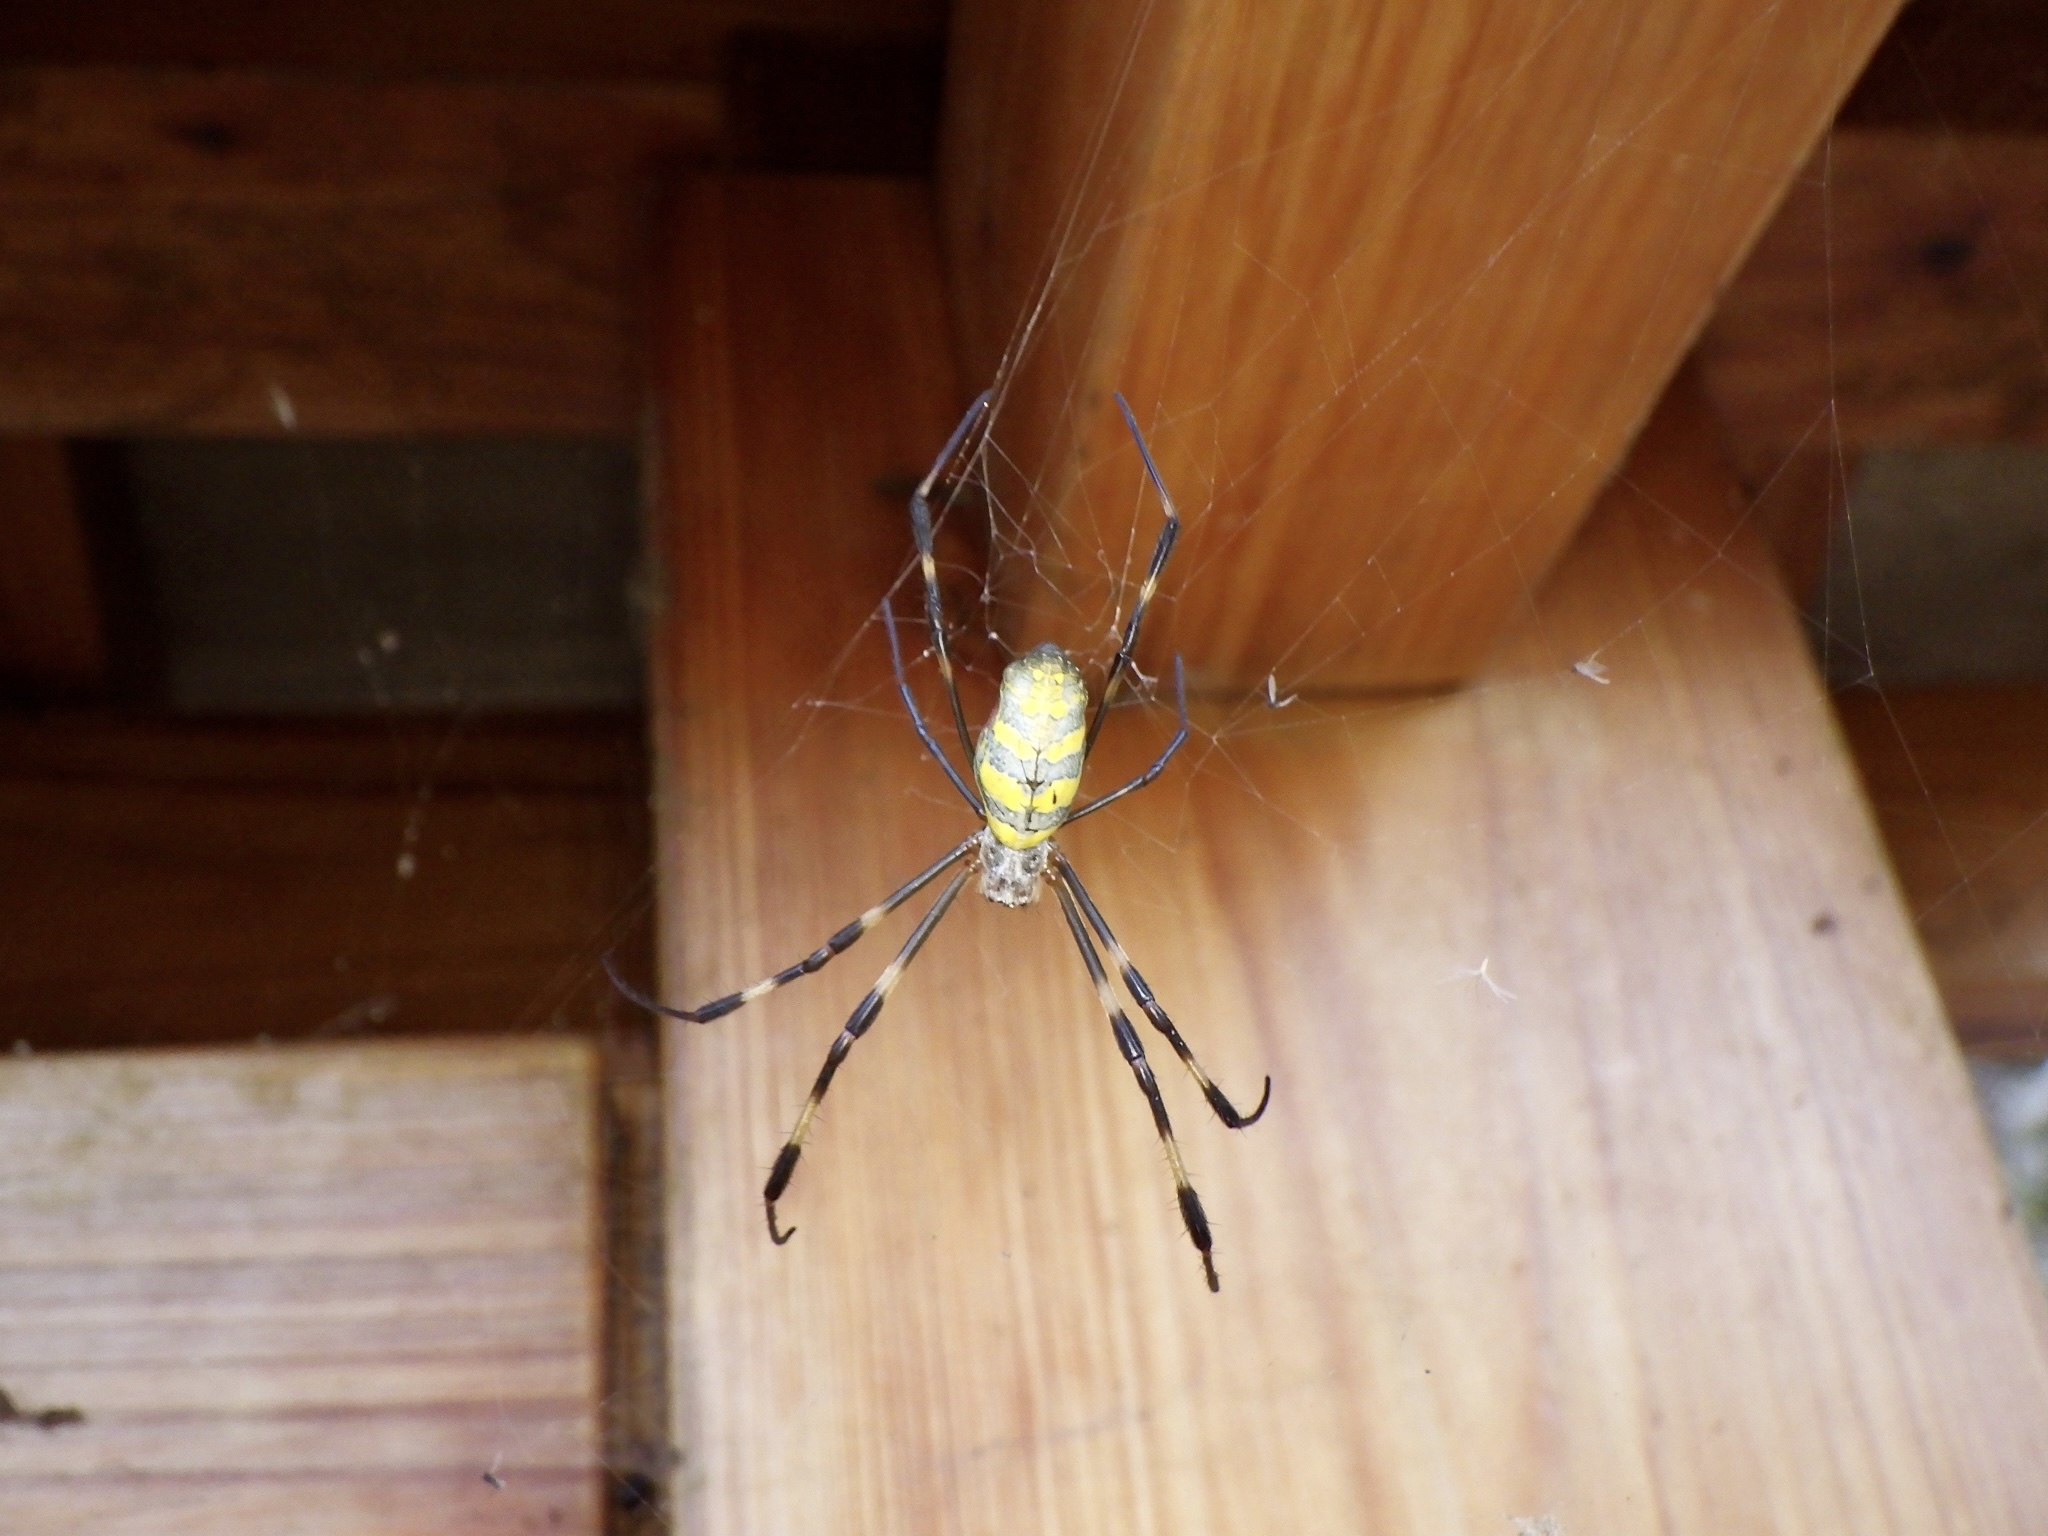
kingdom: Animalia
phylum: Arthropoda
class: Arachnida
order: Araneae
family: Araneidae
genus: Trichonephila
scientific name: Trichonephila clavata
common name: Jorō spider
